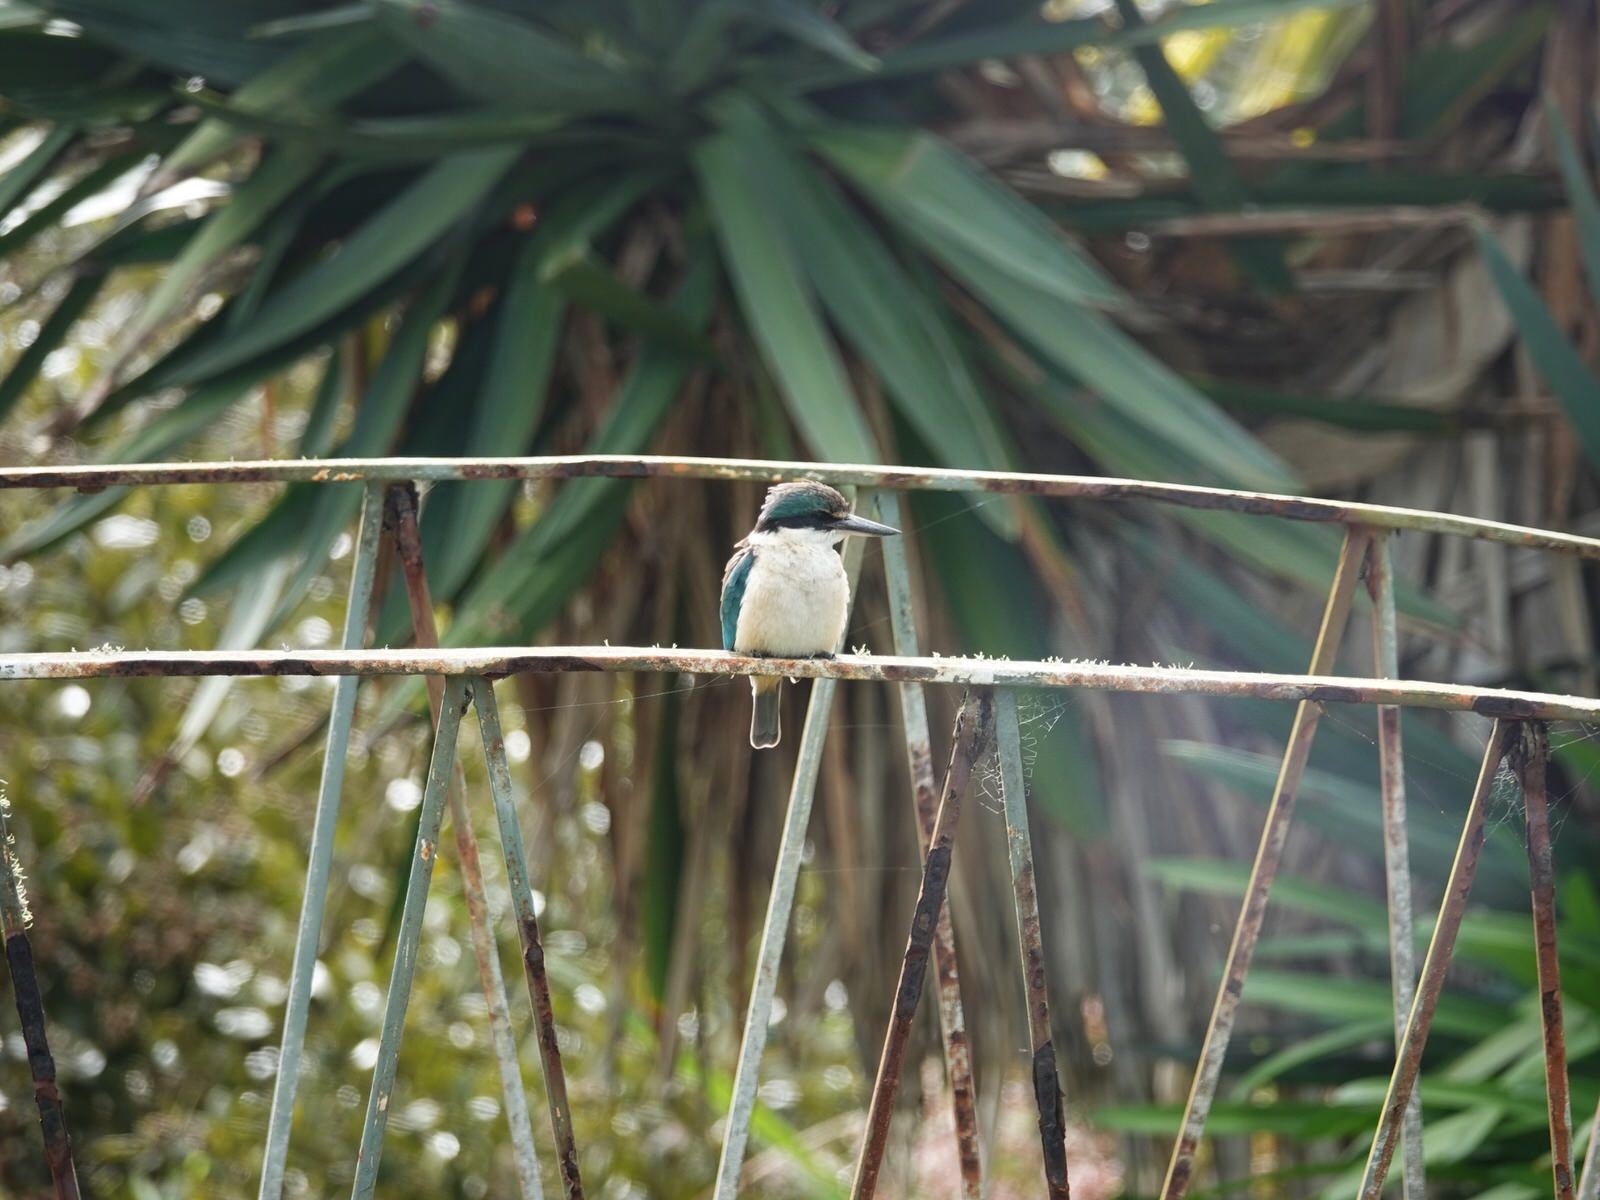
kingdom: Animalia
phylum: Chordata
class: Aves
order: Coraciiformes
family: Alcedinidae
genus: Todiramphus
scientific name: Todiramphus sanctus
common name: Sacred kingfisher
